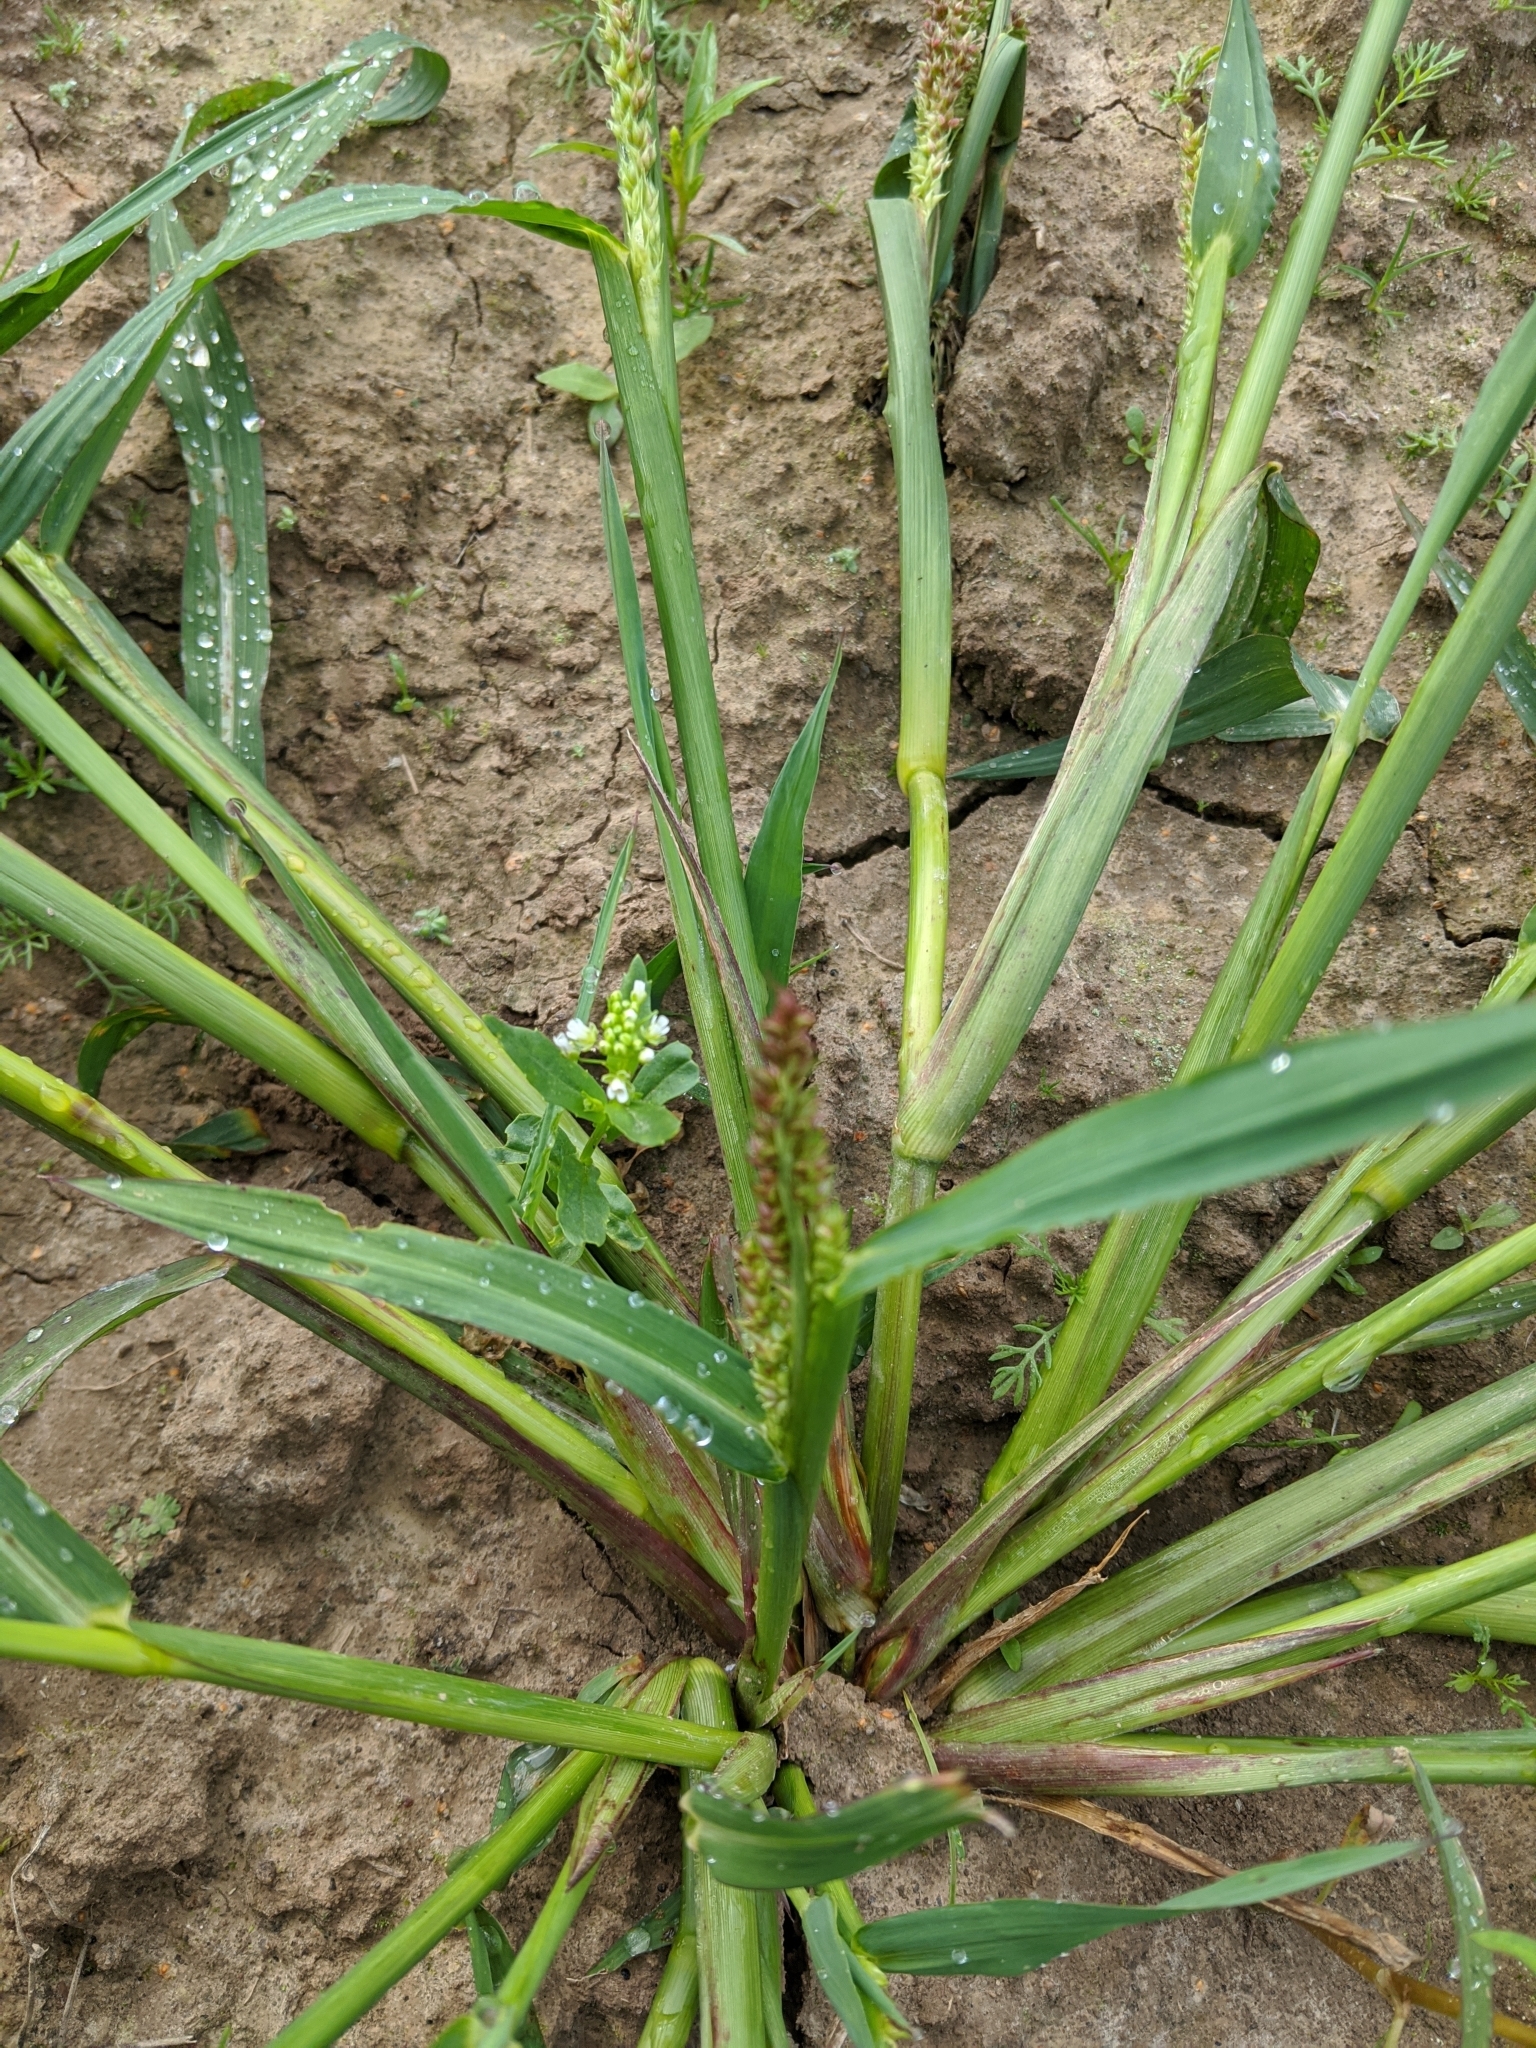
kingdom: Plantae
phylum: Tracheophyta
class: Liliopsida
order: Poales
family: Poaceae
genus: Echinochloa
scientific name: Echinochloa crus-galli
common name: Cockspur
